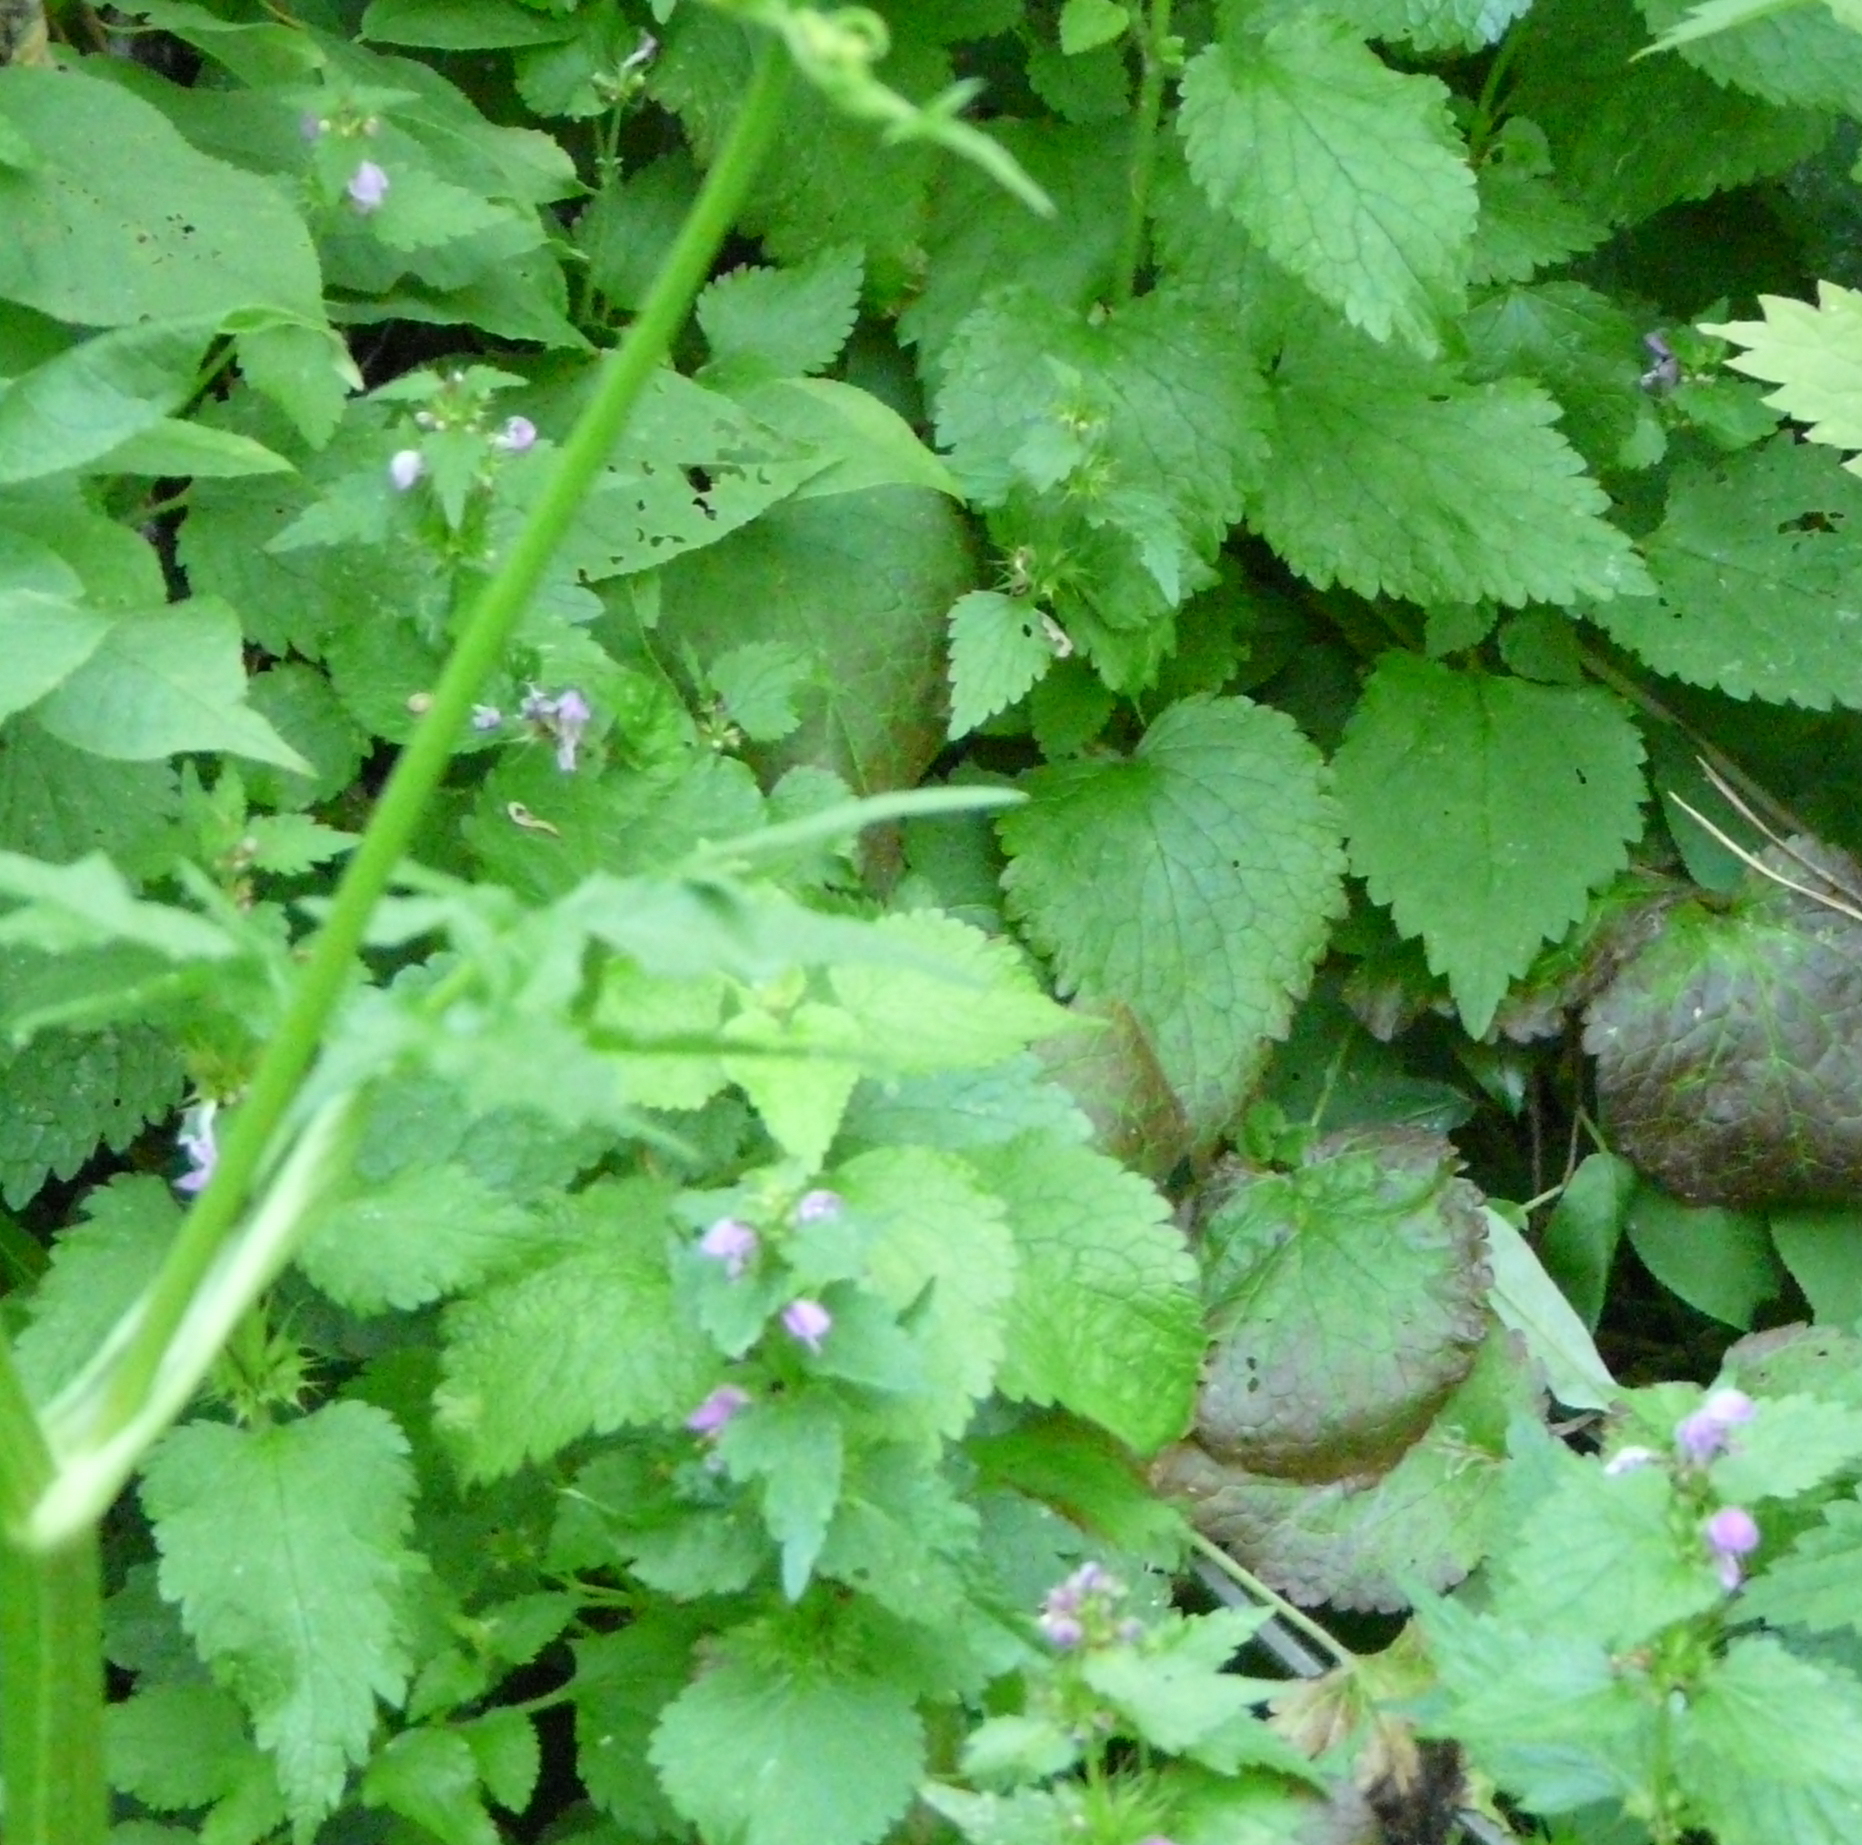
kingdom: Plantae
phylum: Tracheophyta
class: Magnoliopsida
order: Lamiales
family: Lamiaceae
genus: Lamium
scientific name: Lamium maculatum
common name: Spotted dead-nettle
